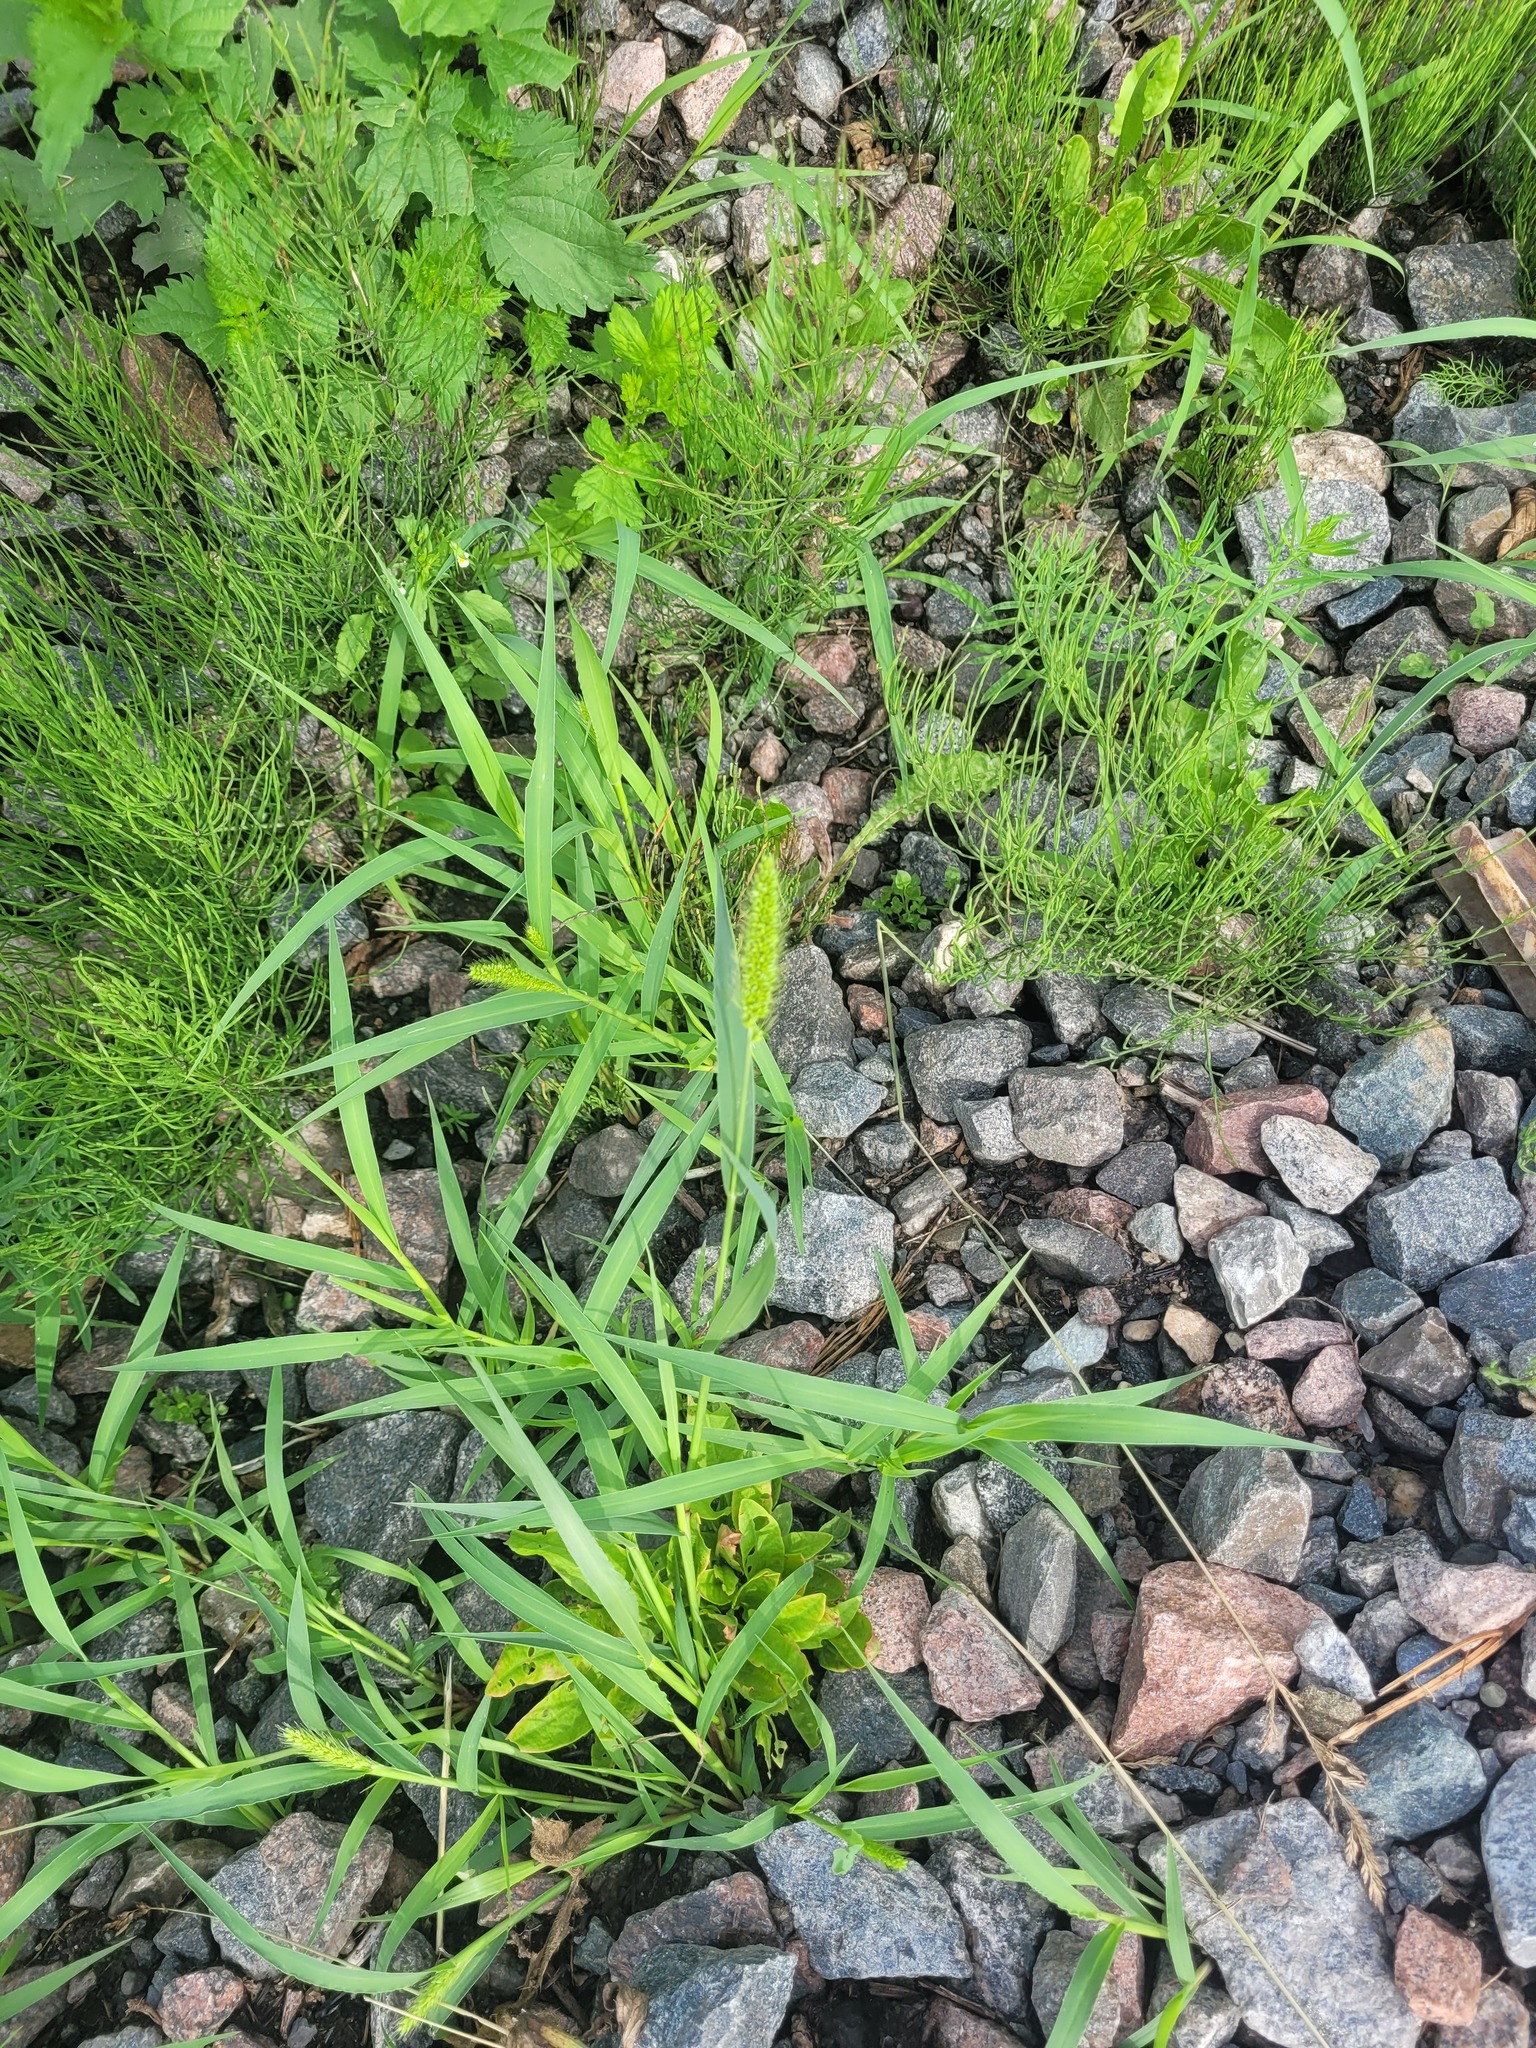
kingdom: Plantae
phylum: Tracheophyta
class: Liliopsida
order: Poales
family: Poaceae
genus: Setaria
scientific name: Setaria viridis
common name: Green bristlegrass
